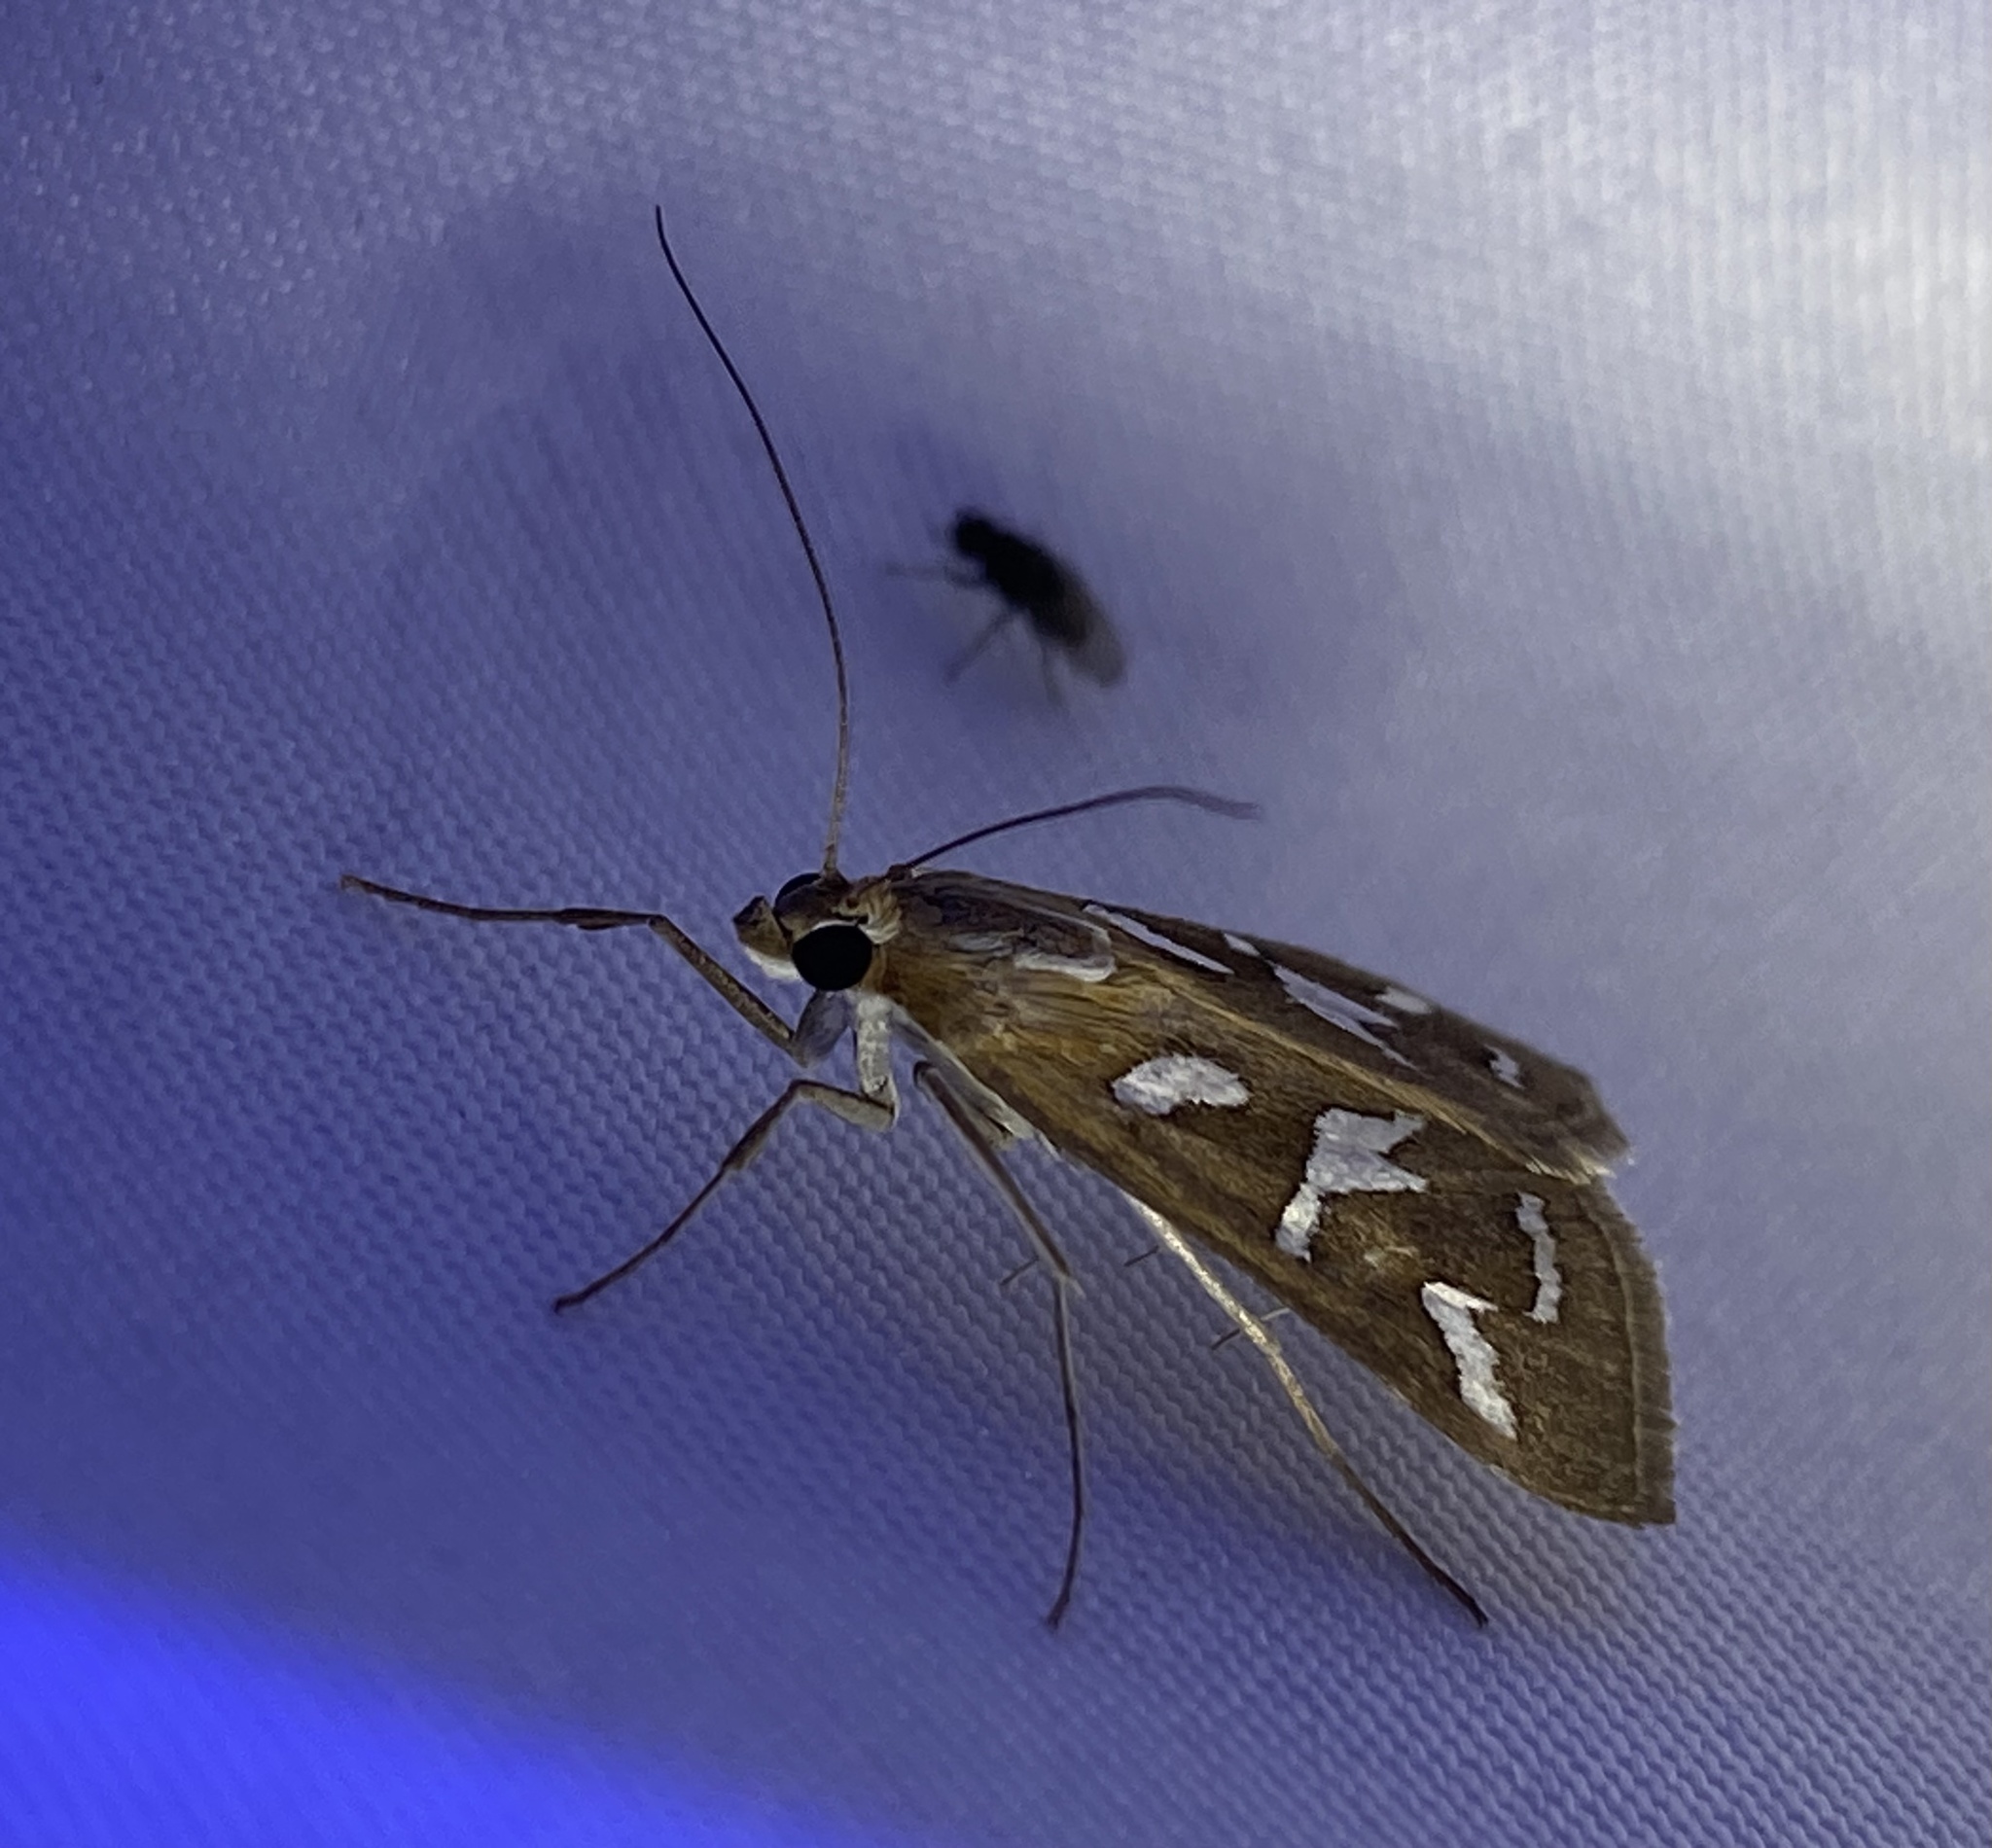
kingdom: Animalia
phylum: Arthropoda
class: Insecta
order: Lepidoptera
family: Crambidae
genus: Diastictis
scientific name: Diastictis fracturalis
